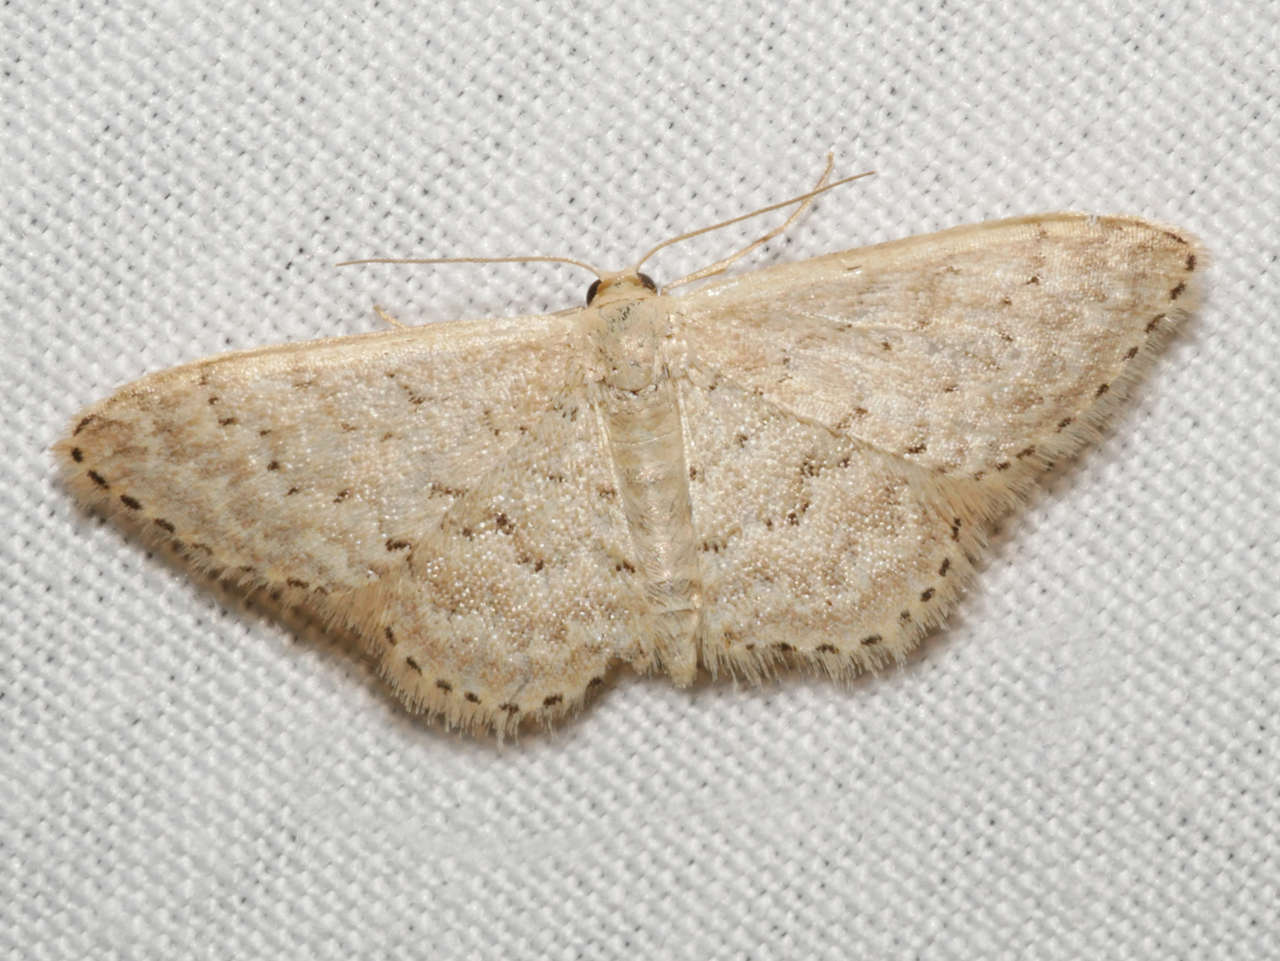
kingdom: Animalia
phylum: Arthropoda
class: Insecta
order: Lepidoptera
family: Geometridae
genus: Idaea
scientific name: Idaea philocosma
